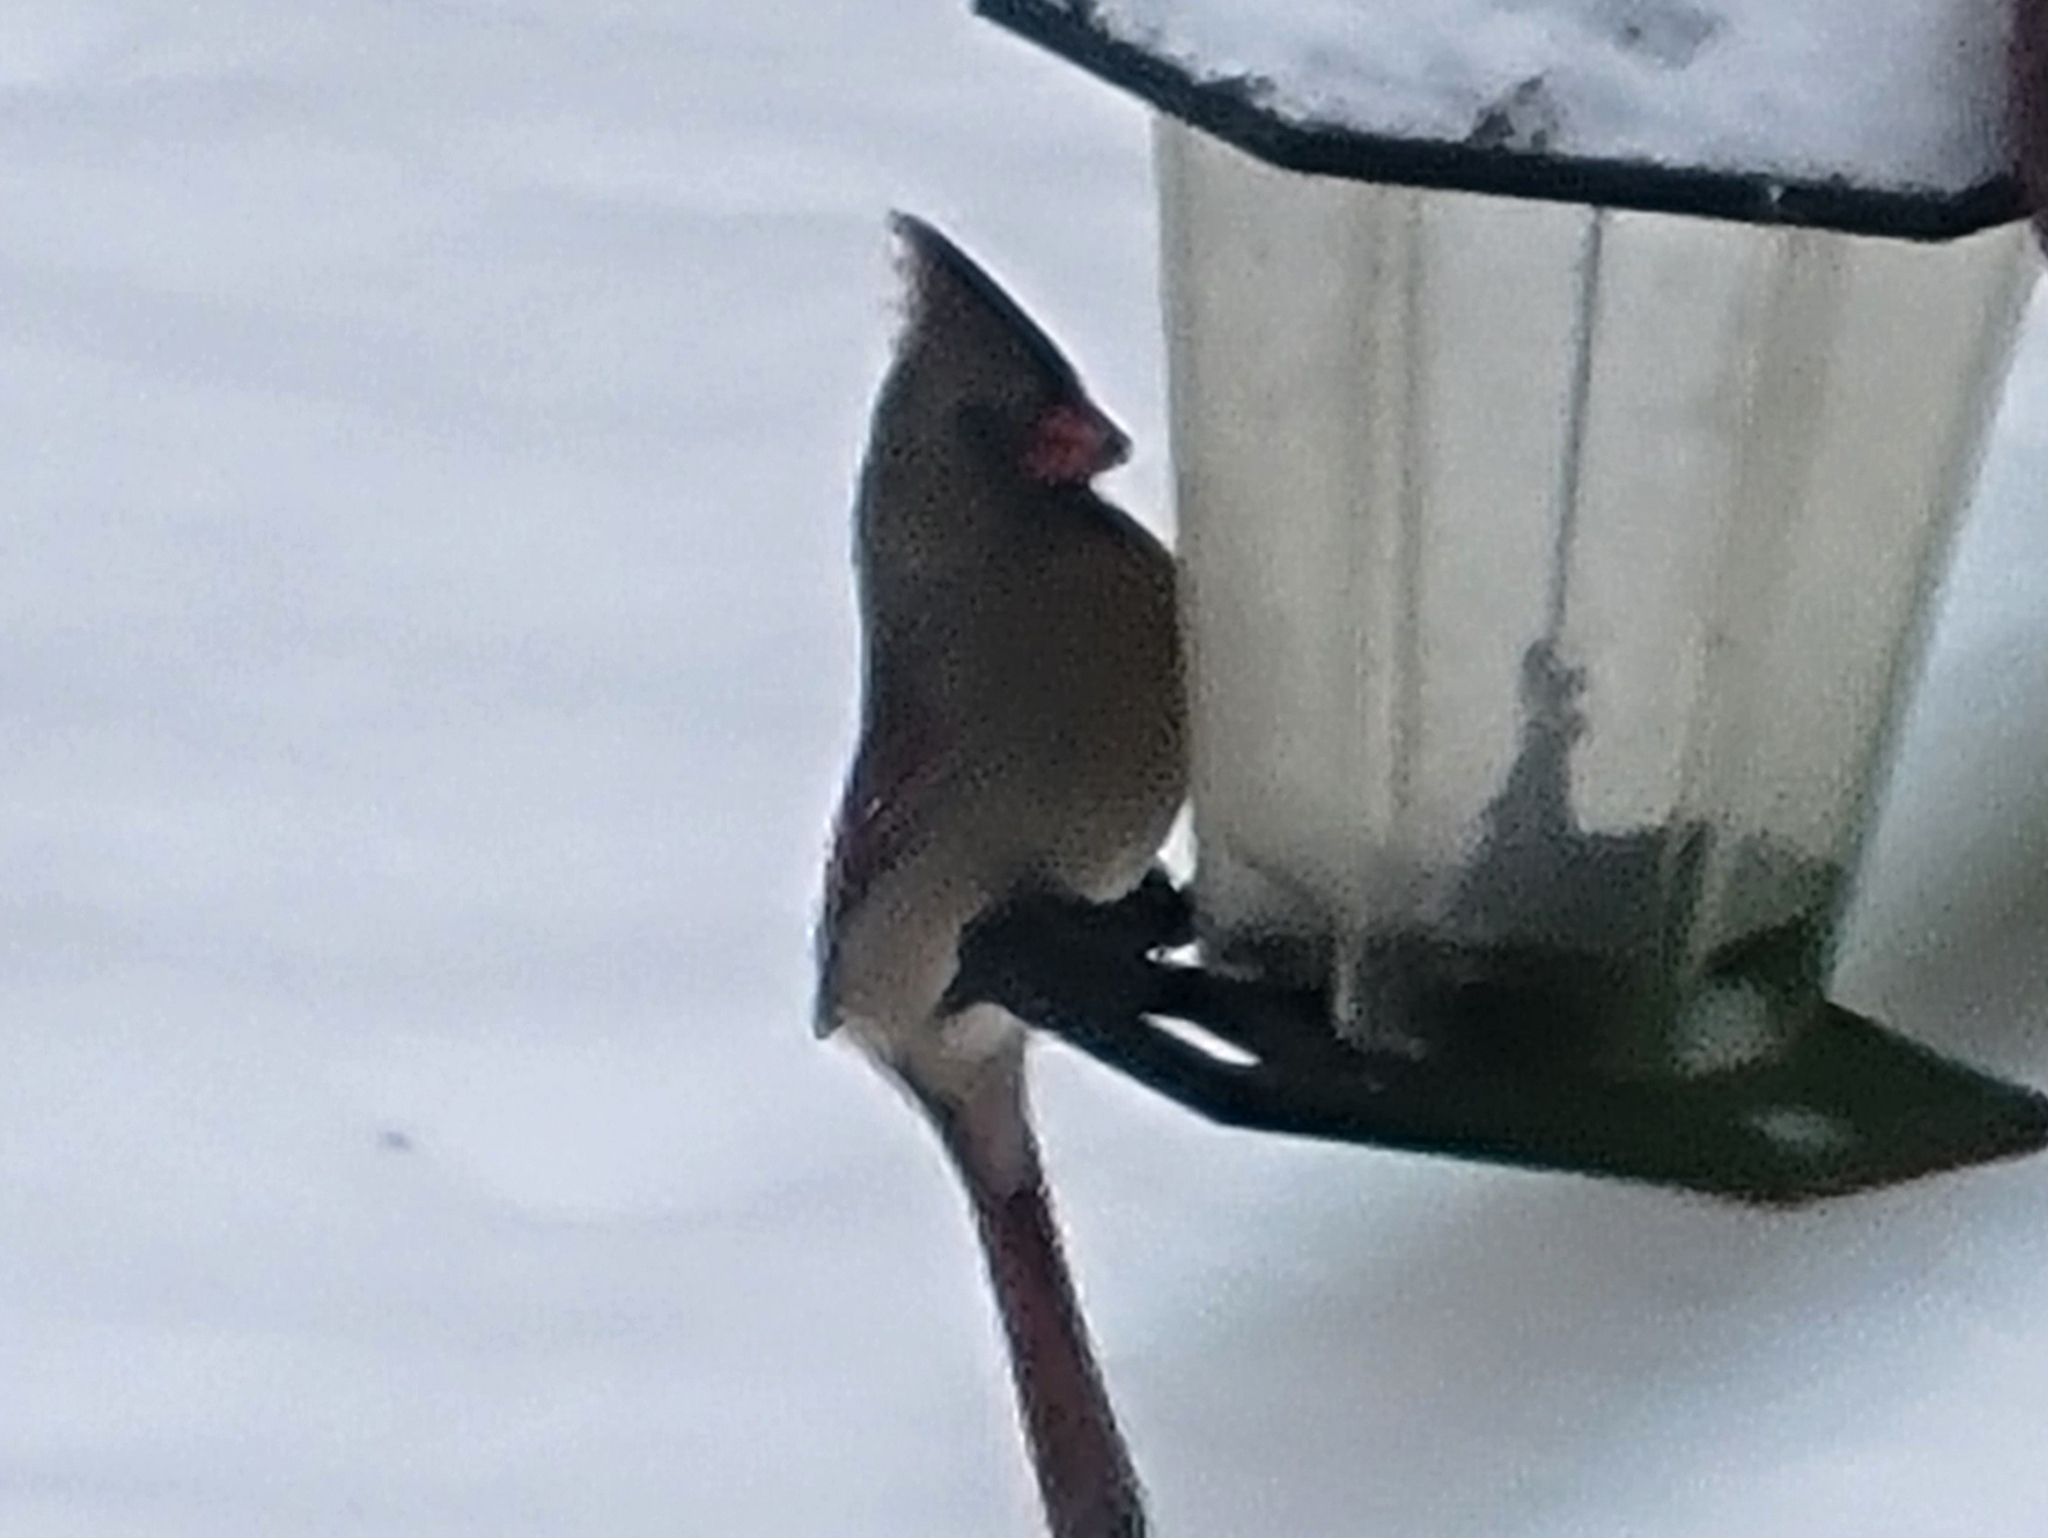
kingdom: Animalia
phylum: Chordata
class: Aves
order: Passeriformes
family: Cardinalidae
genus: Cardinalis
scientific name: Cardinalis cardinalis
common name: Northern cardinal
